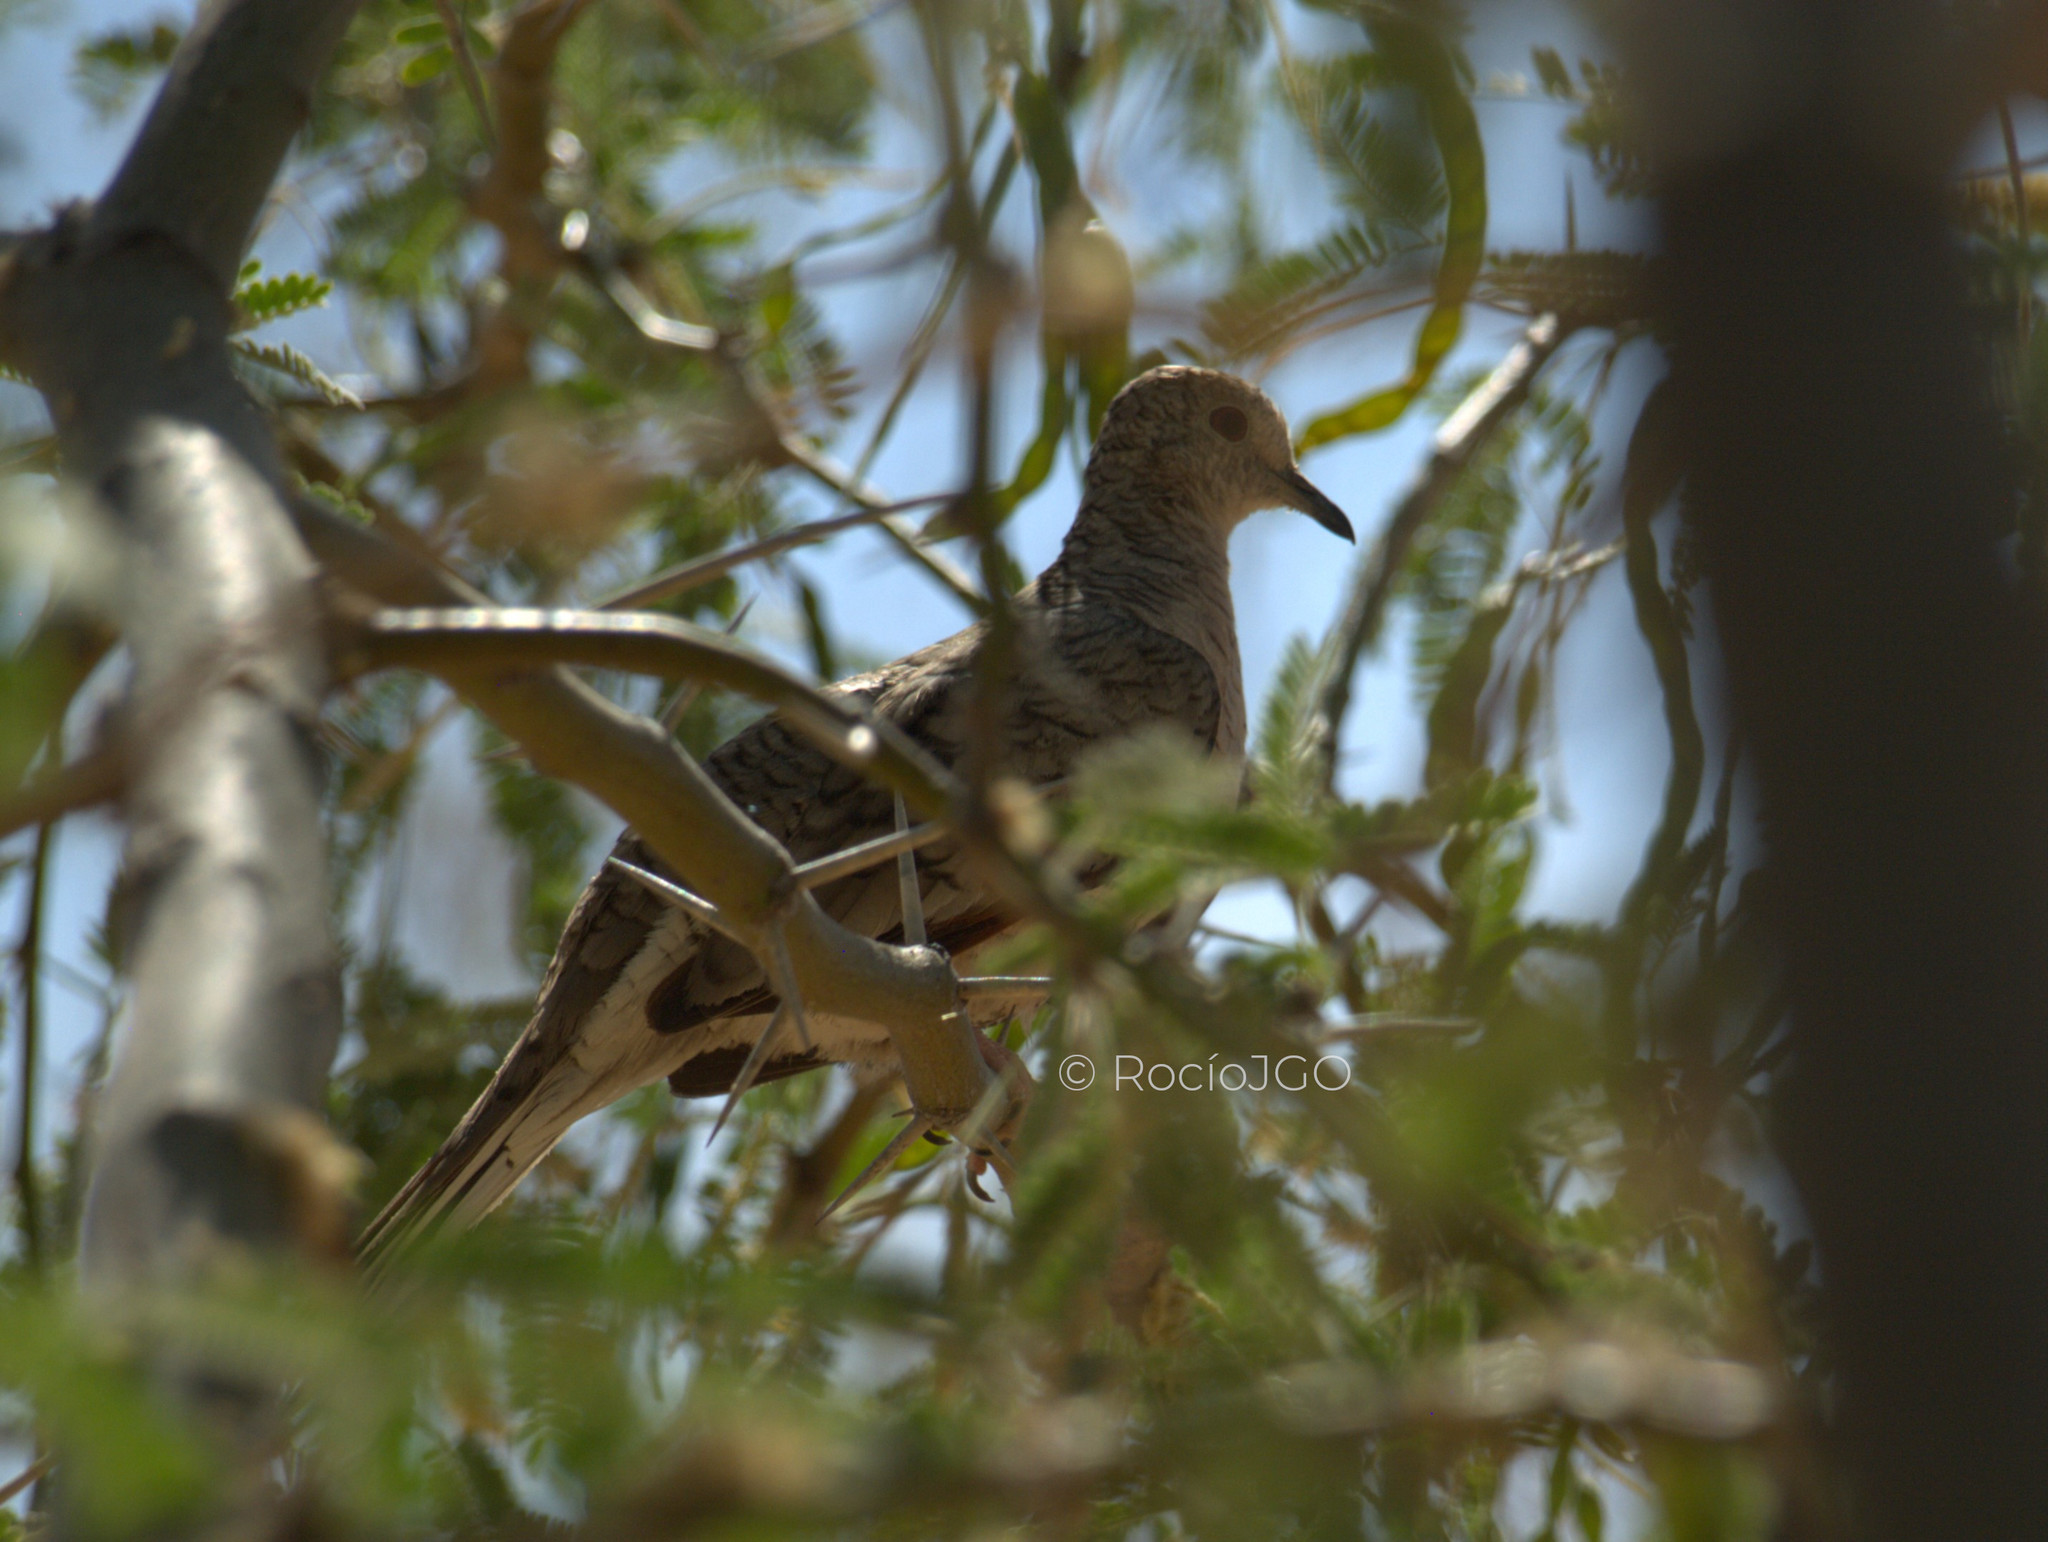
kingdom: Animalia
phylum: Chordata
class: Aves
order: Columbiformes
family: Columbidae
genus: Columbina
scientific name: Columbina inca
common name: Inca dove
